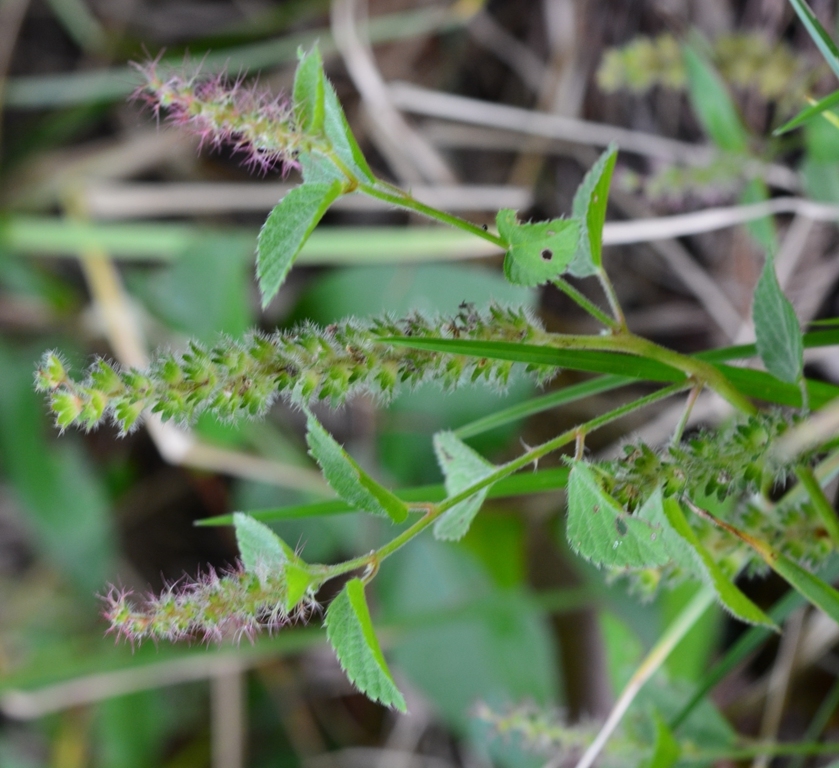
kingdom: Plantae
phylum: Tracheophyta
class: Magnoliopsida
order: Malpighiales
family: Euphorbiaceae
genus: Acalypha
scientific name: Acalypha phleoides
